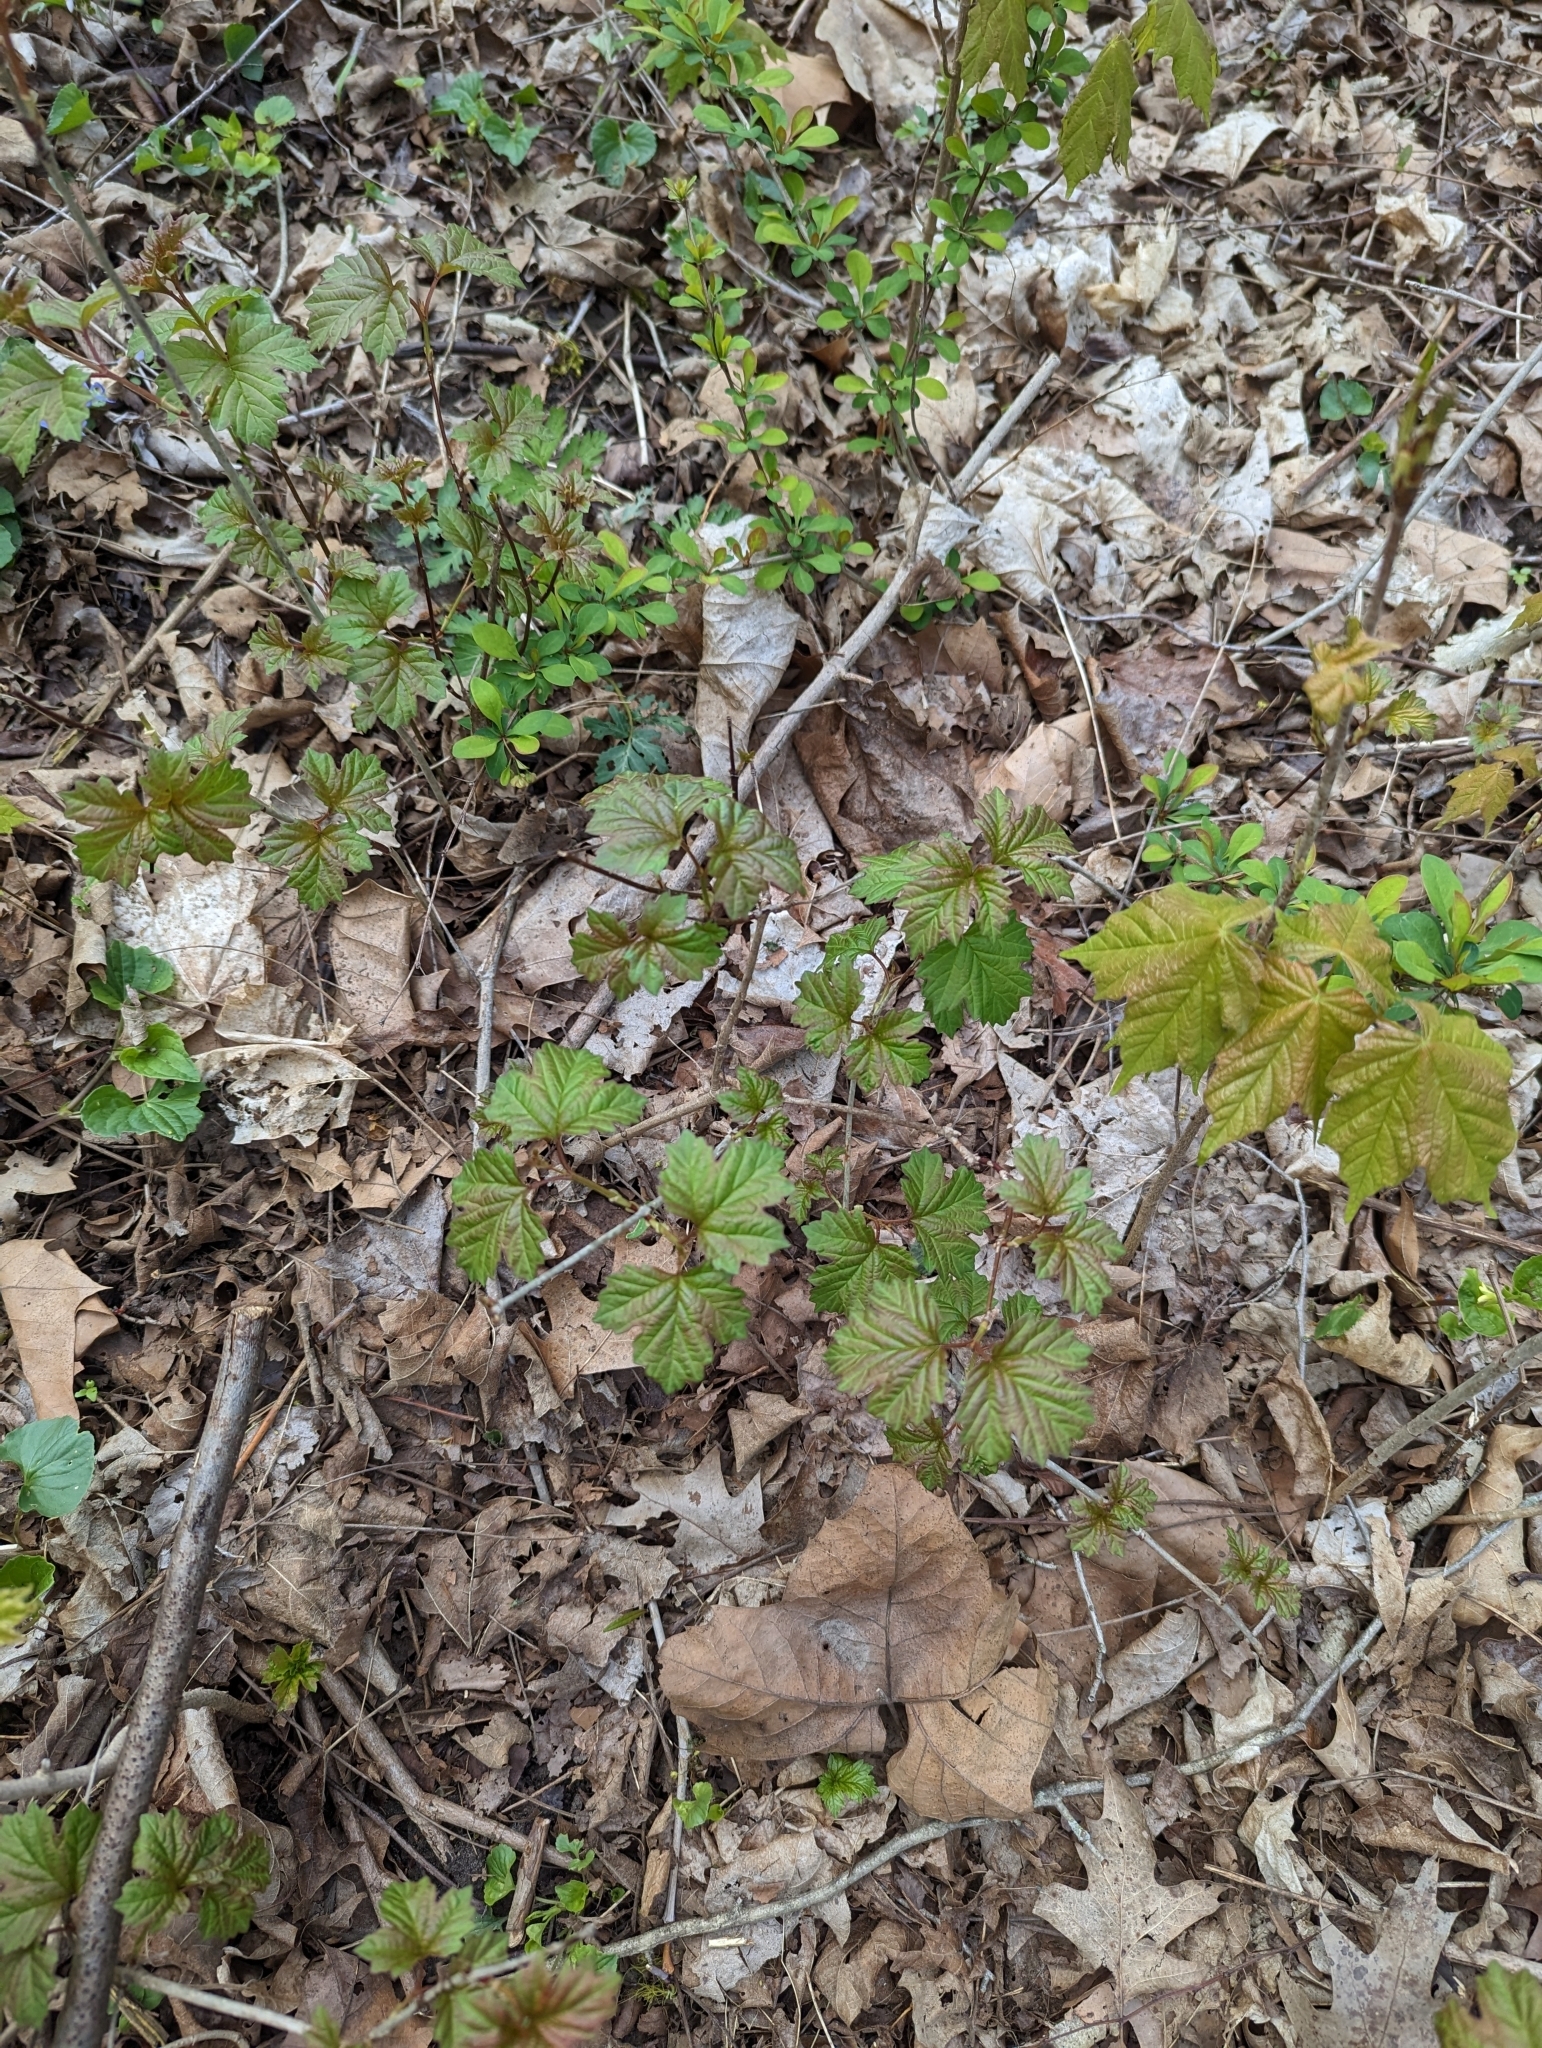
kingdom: Plantae
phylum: Tracheophyta
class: Magnoliopsida
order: Dipsacales
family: Viburnaceae
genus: Viburnum
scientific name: Viburnum opulus
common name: Guelder-rose
